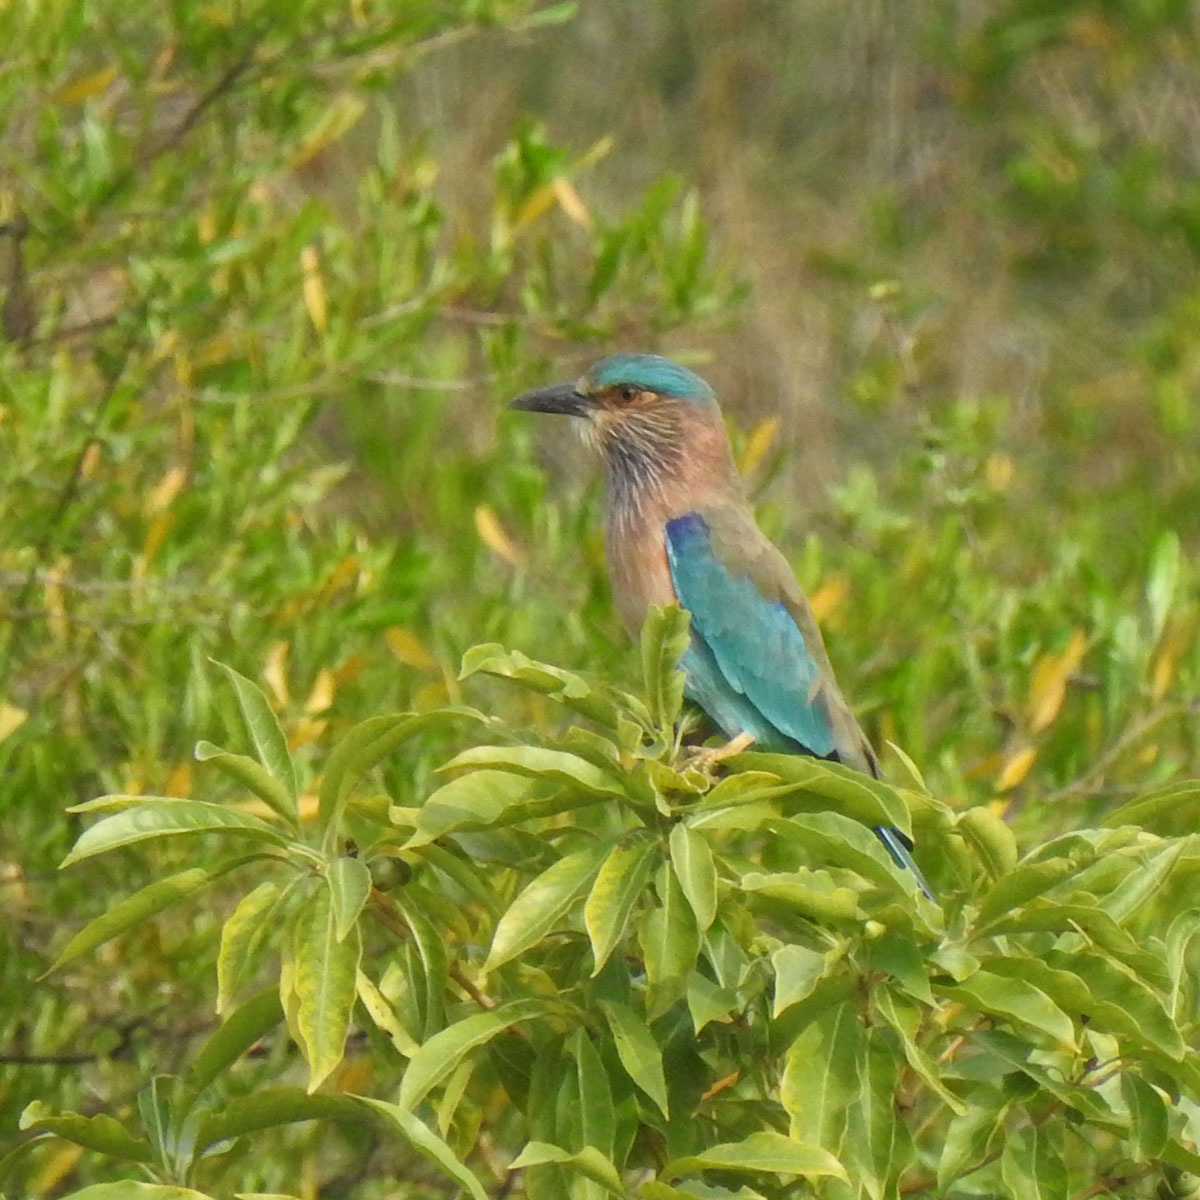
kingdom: Animalia
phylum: Chordata
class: Aves
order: Coraciiformes
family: Coraciidae
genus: Coracias
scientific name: Coracias benghalensis
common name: Indian roller
